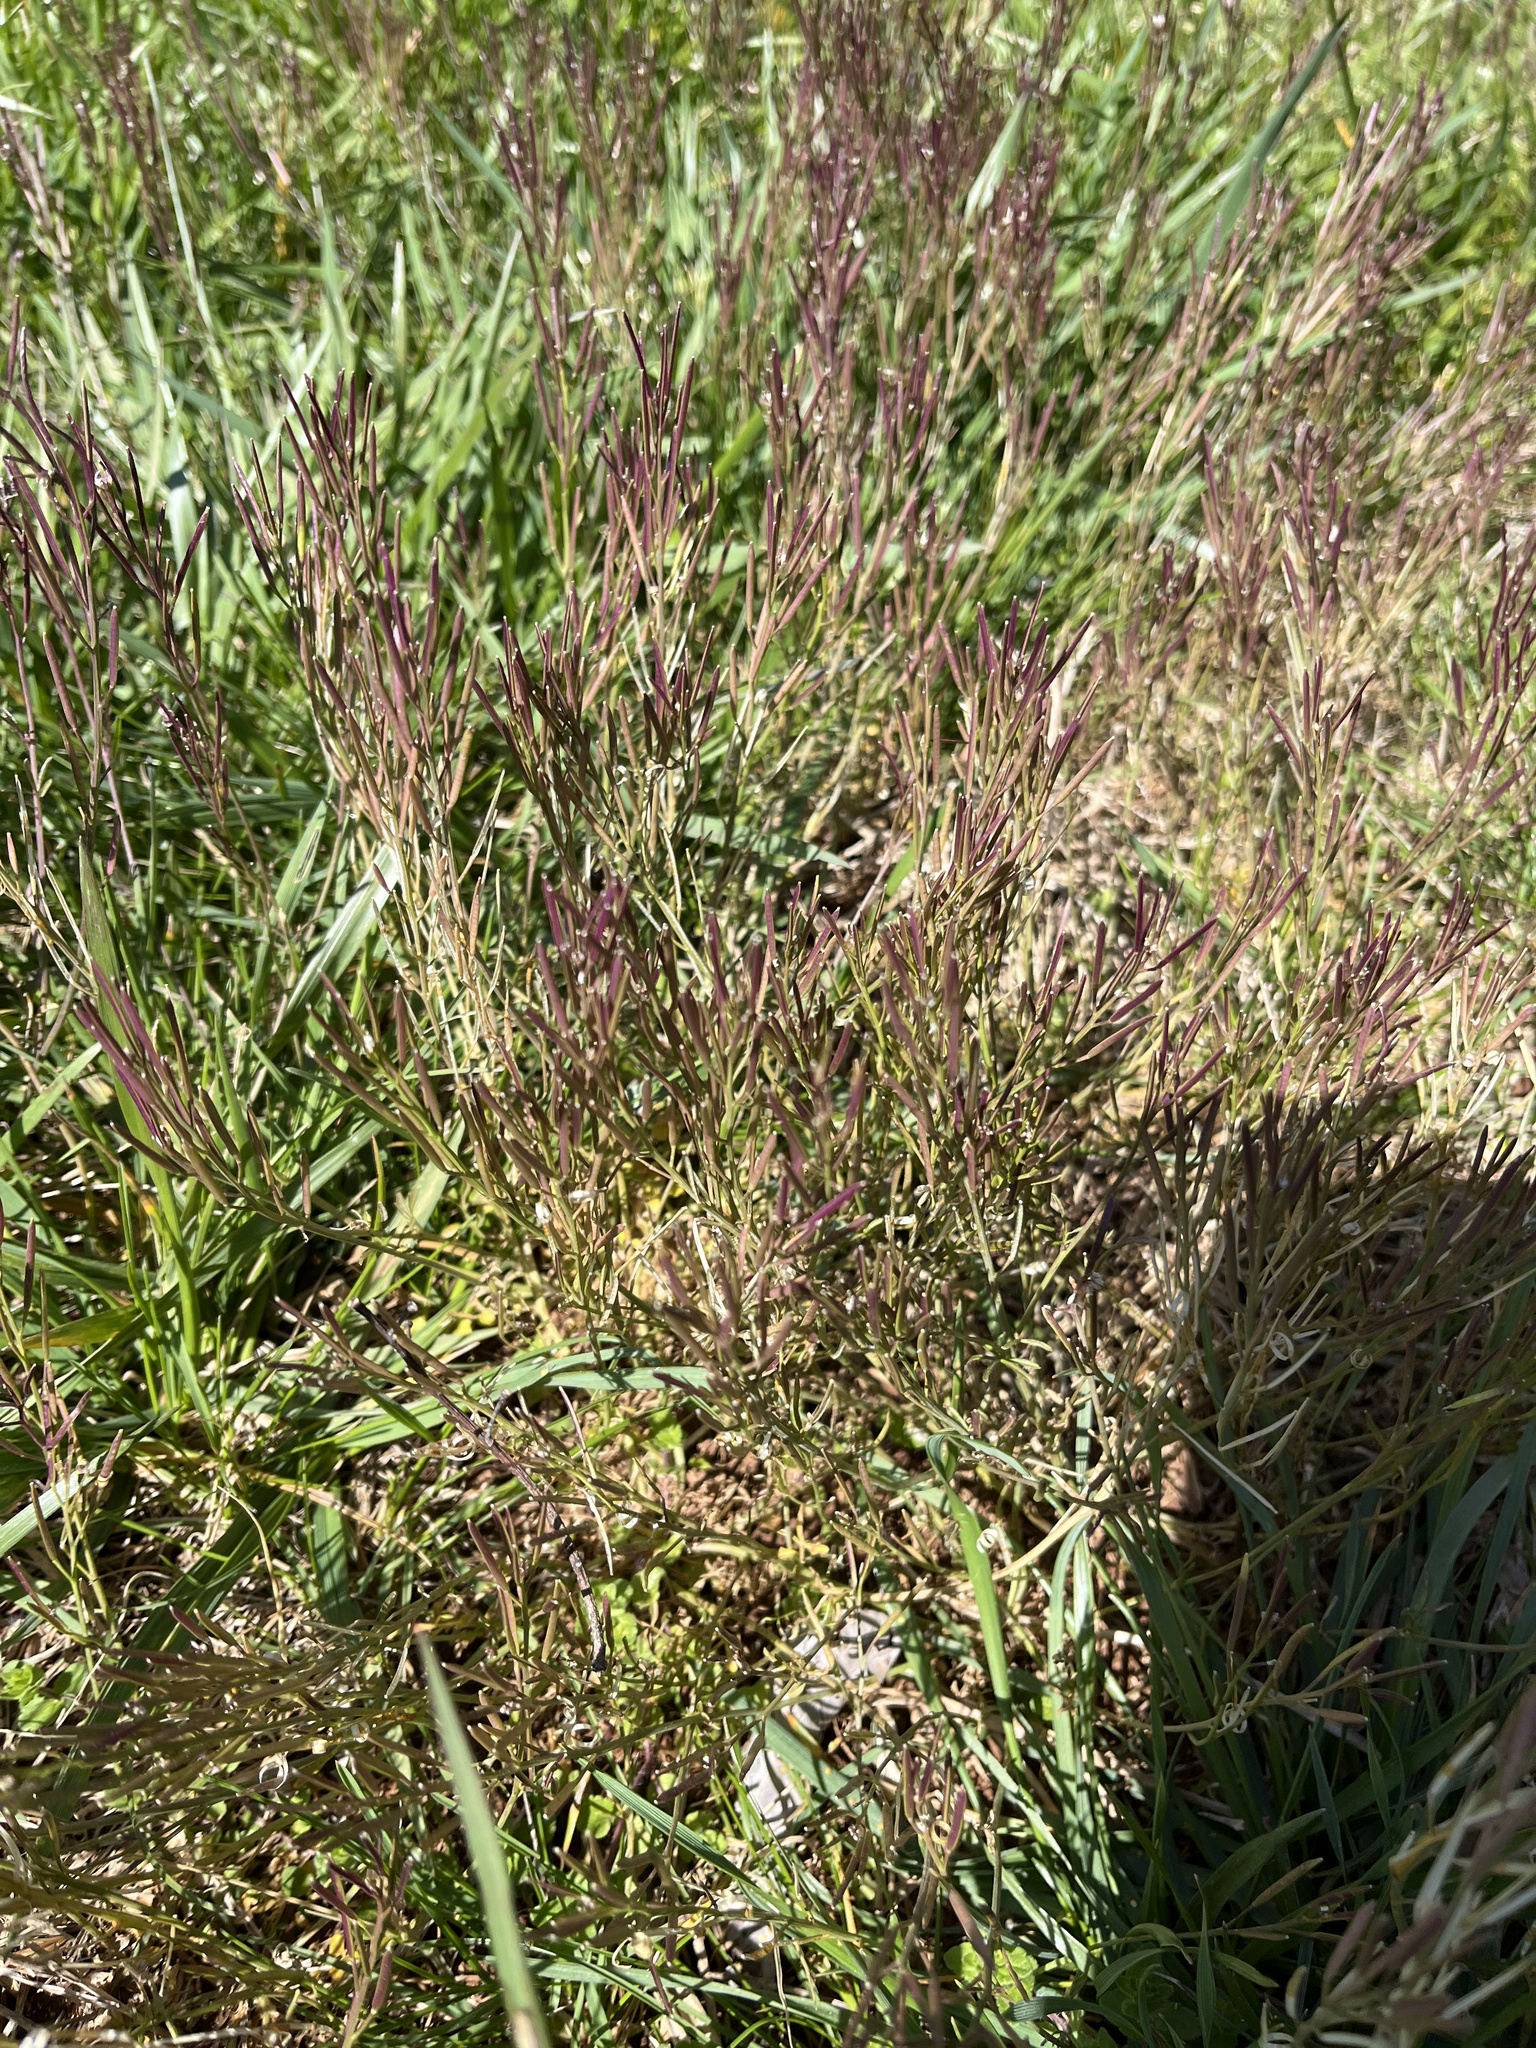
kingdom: Plantae
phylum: Tracheophyta
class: Magnoliopsida
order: Brassicales
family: Brassicaceae
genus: Cardamine
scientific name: Cardamine hirsuta
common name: Hairy bittercress
